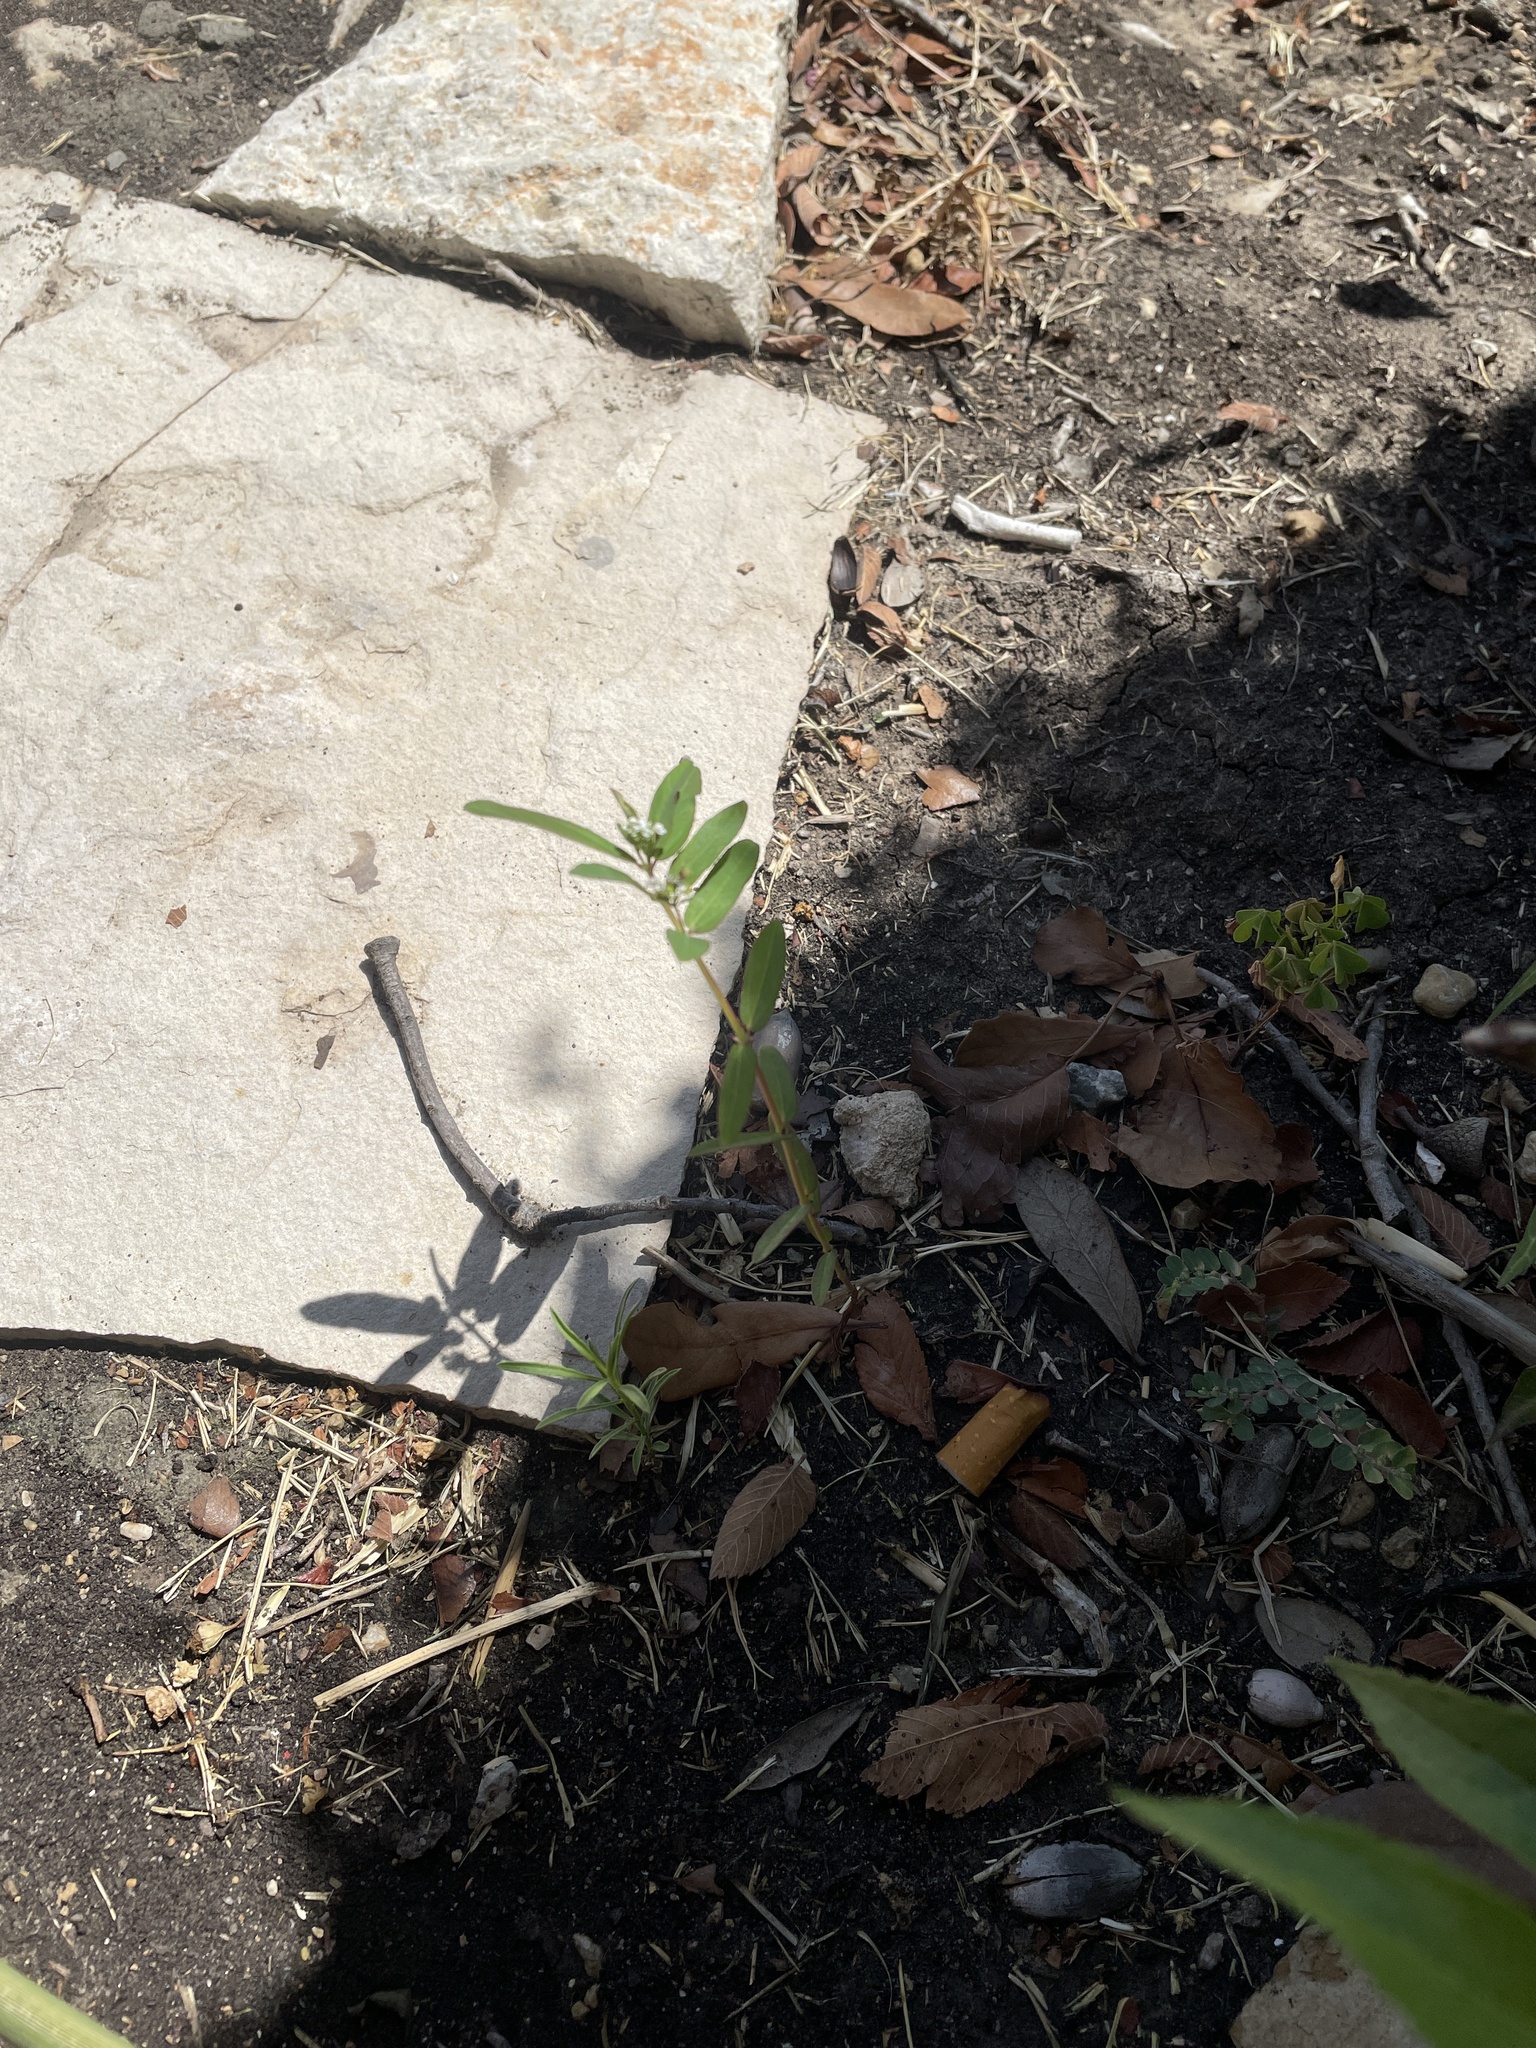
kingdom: Plantae
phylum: Tracheophyta
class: Magnoliopsida
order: Malpighiales
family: Euphorbiaceae
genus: Euphorbia
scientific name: Euphorbia hypericifolia
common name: Graceful sandmat
